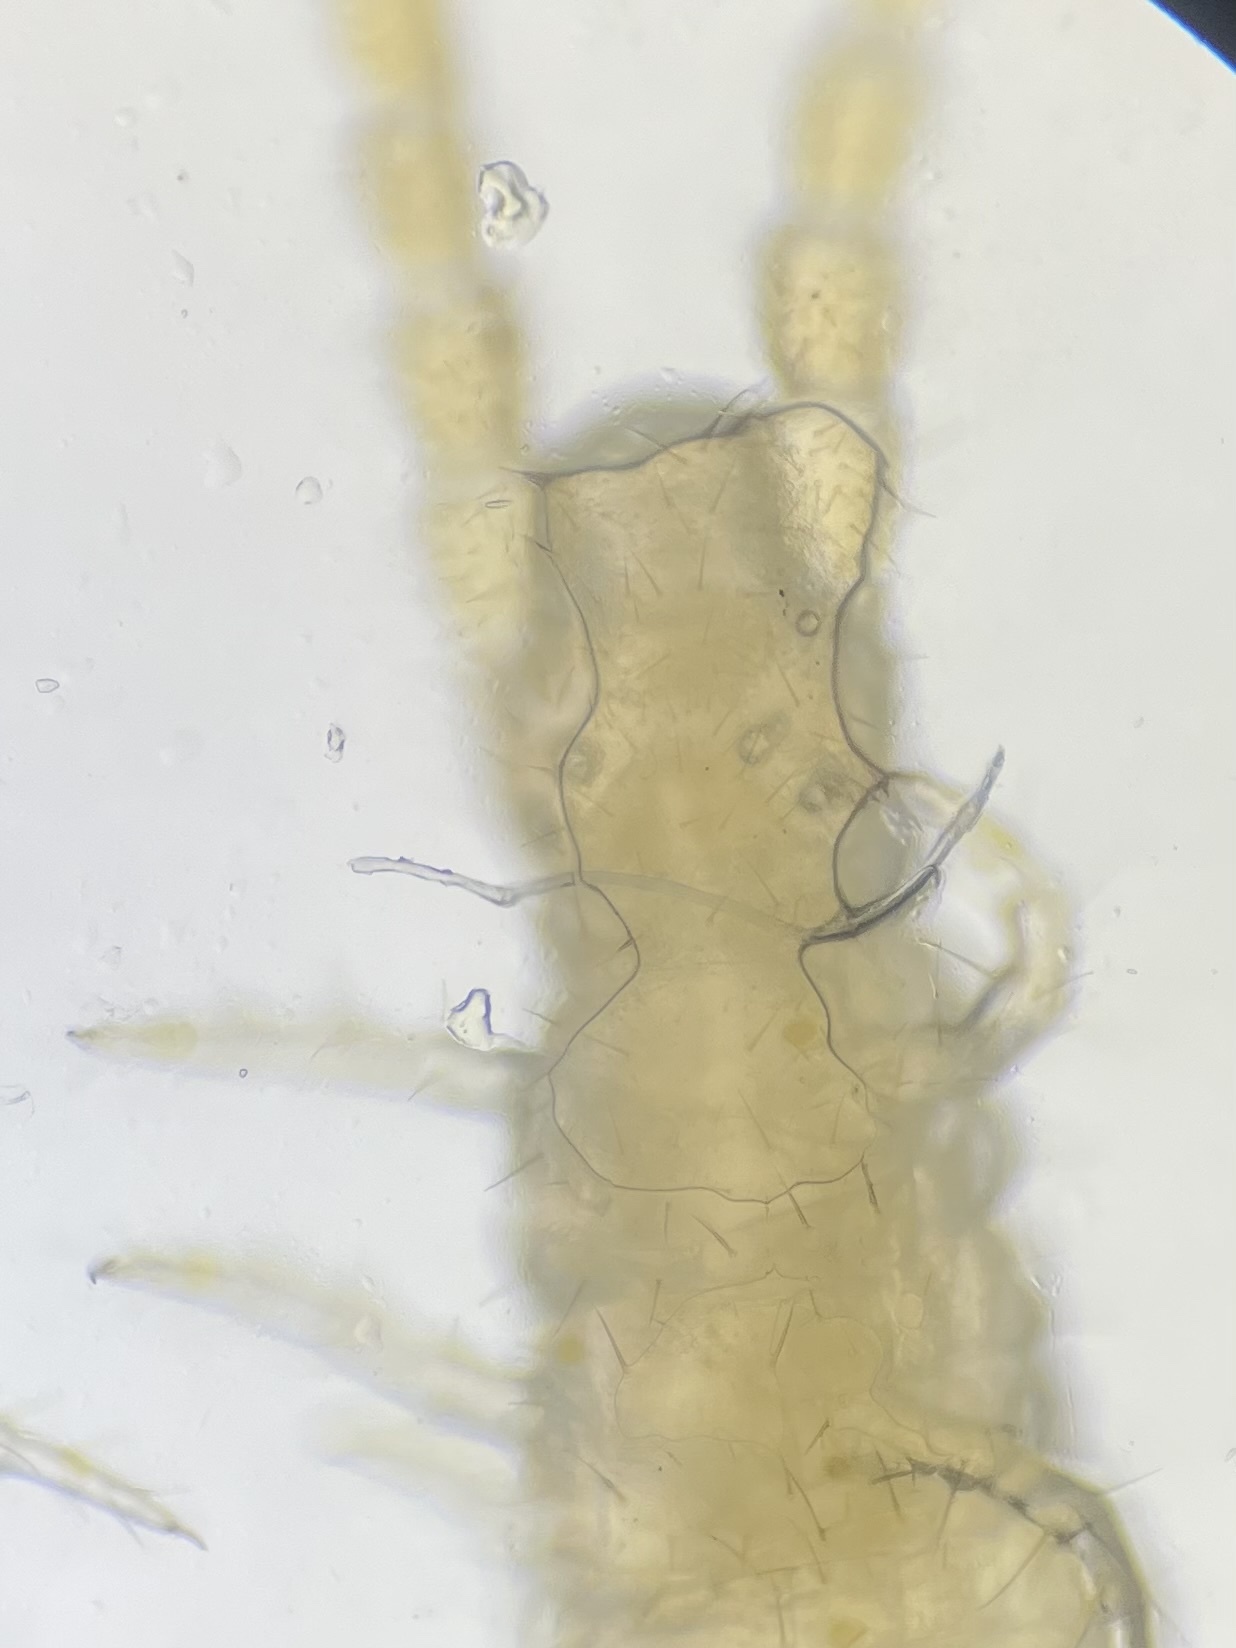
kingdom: Animalia
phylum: Arthropoda
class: Chilopoda
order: Geophilomorpha
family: Schendylidae
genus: Schendyla
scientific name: Schendyla nemorensis
